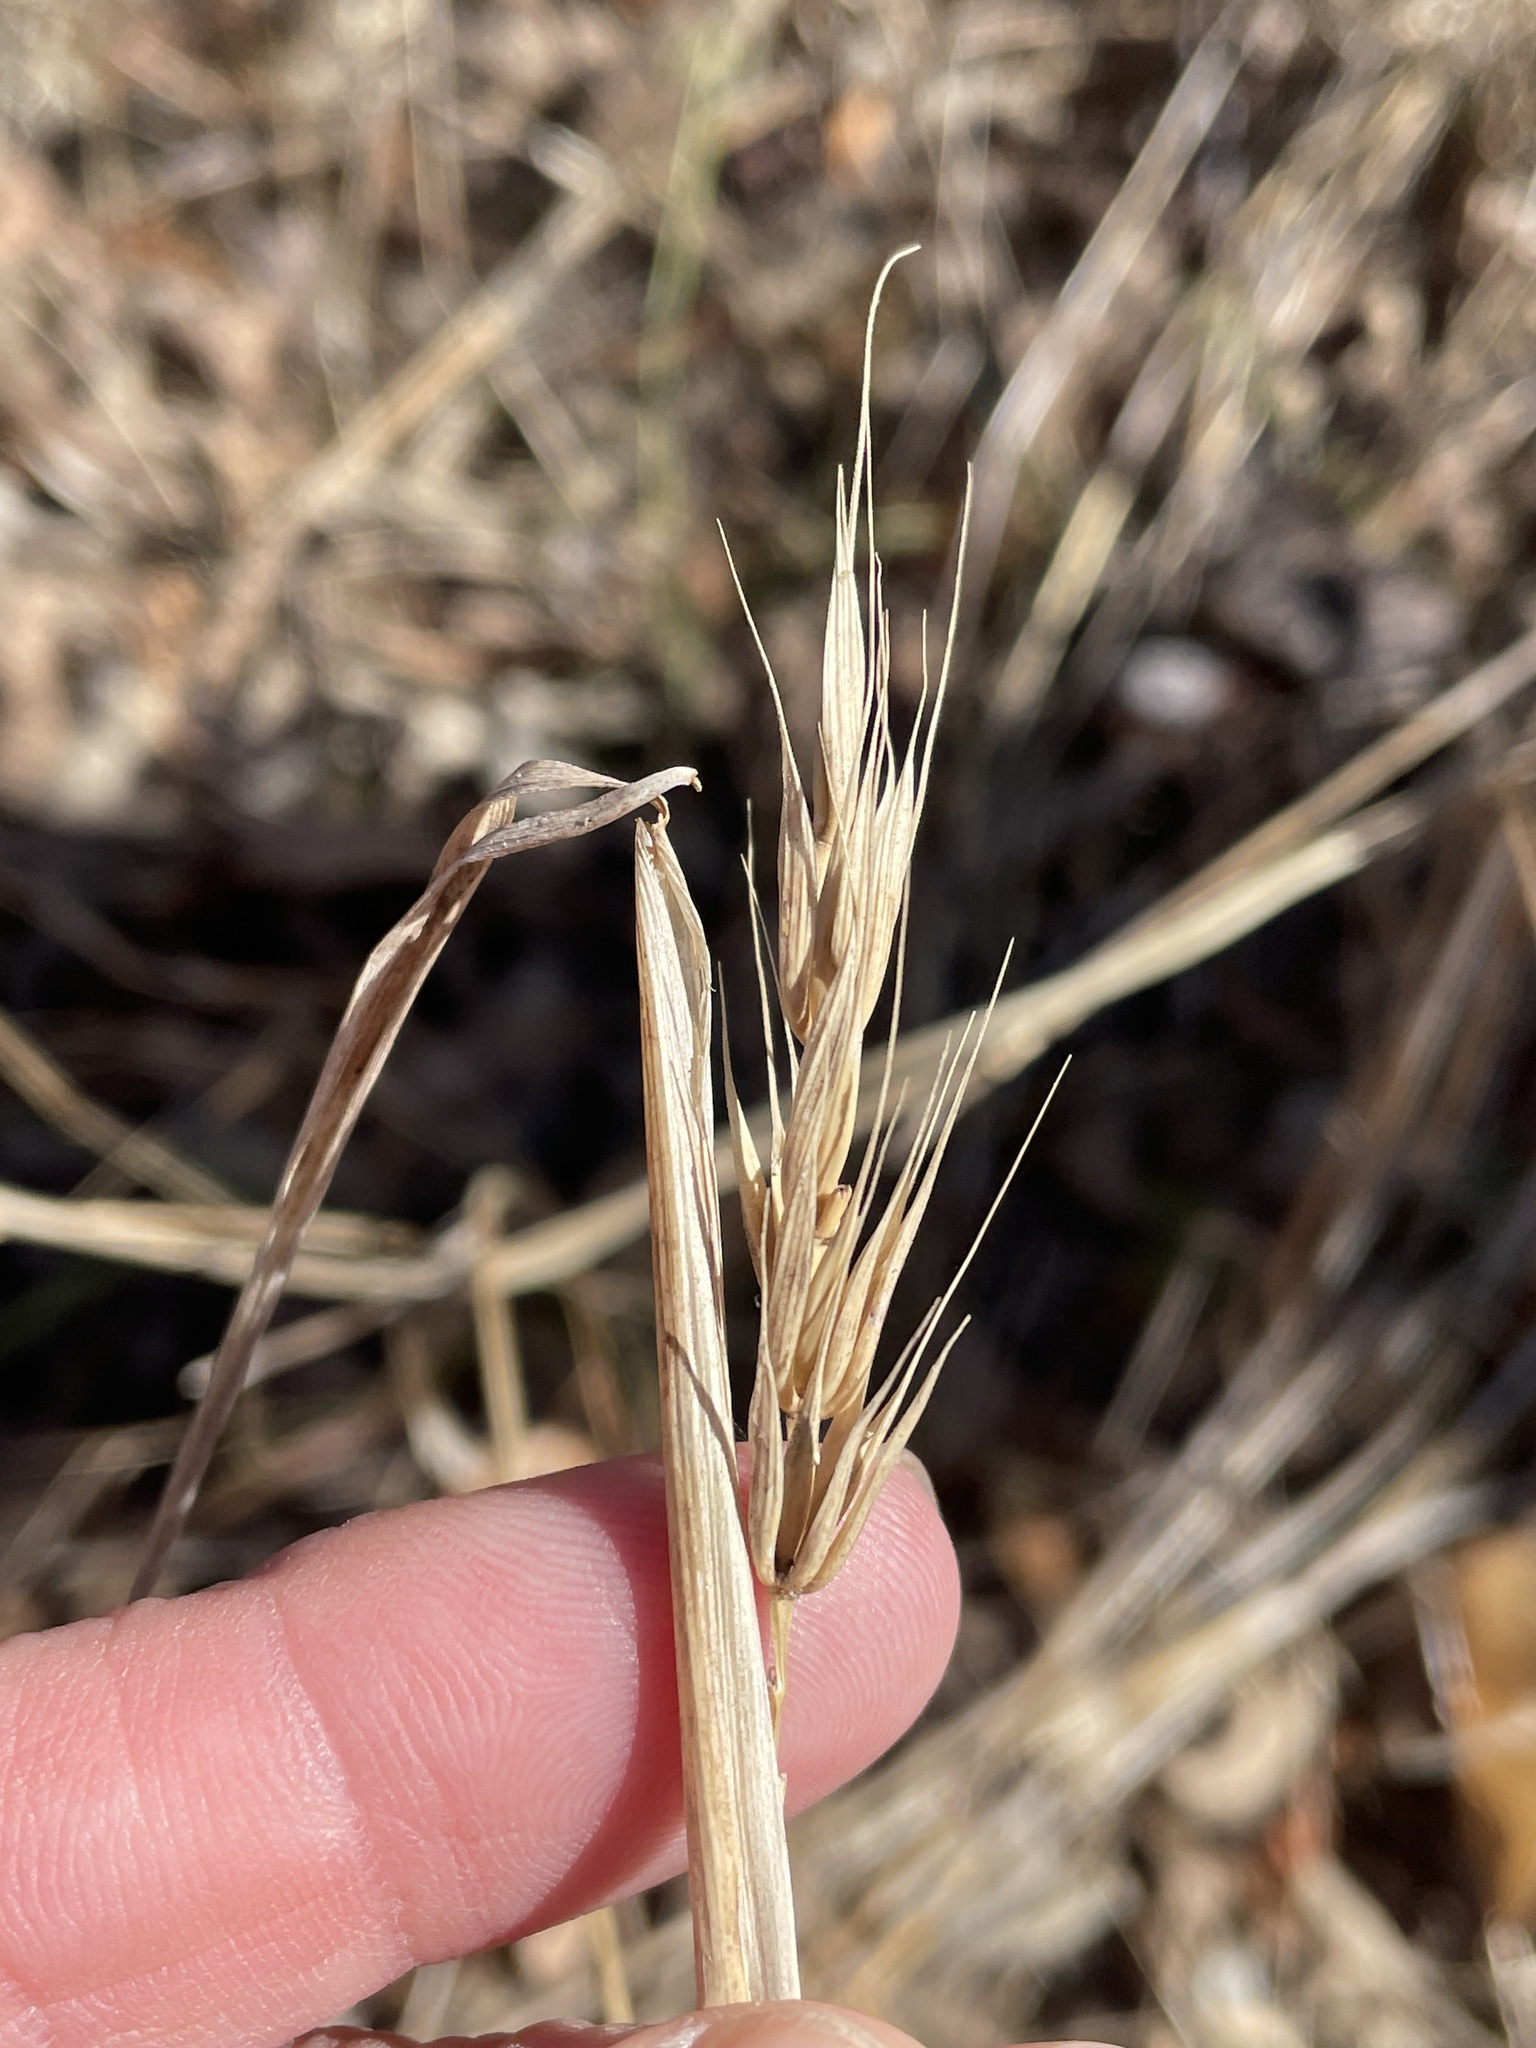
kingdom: Plantae
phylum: Tracheophyta
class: Liliopsida
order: Poales
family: Poaceae
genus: Elymus
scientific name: Elymus virginicus
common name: Common eastern wildrye
